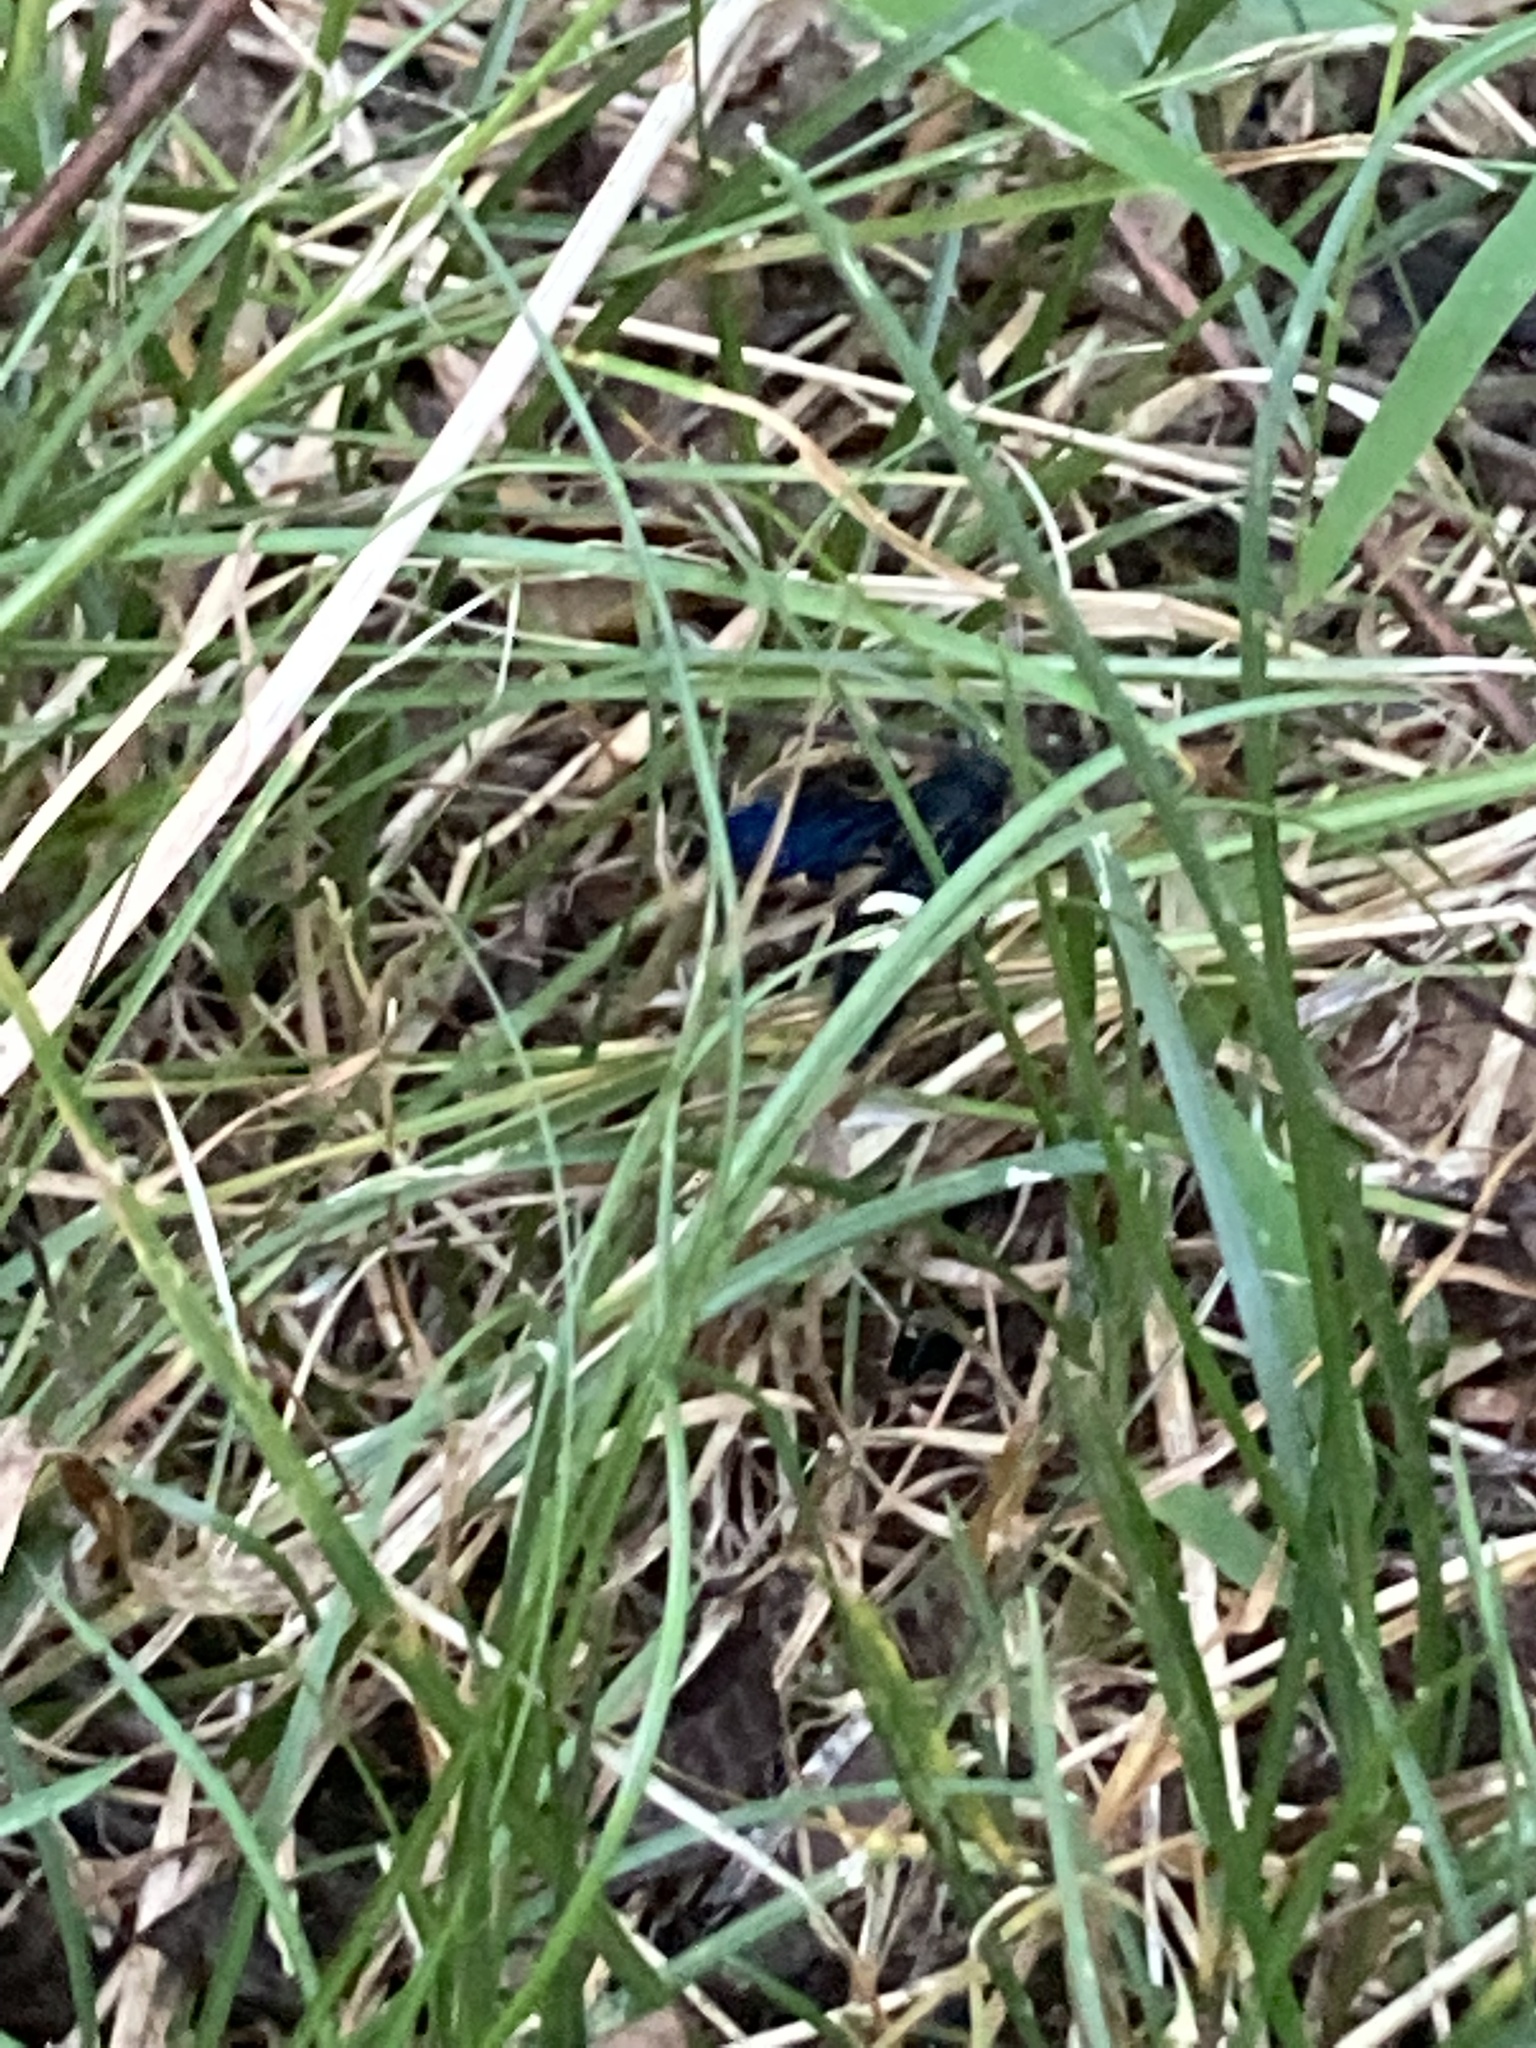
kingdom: Animalia
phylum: Arthropoda
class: Insecta
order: Hymenoptera
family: Scoliidae
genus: Scolia
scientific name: Scolia bicincta
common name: Double-banded scoliid wasp
